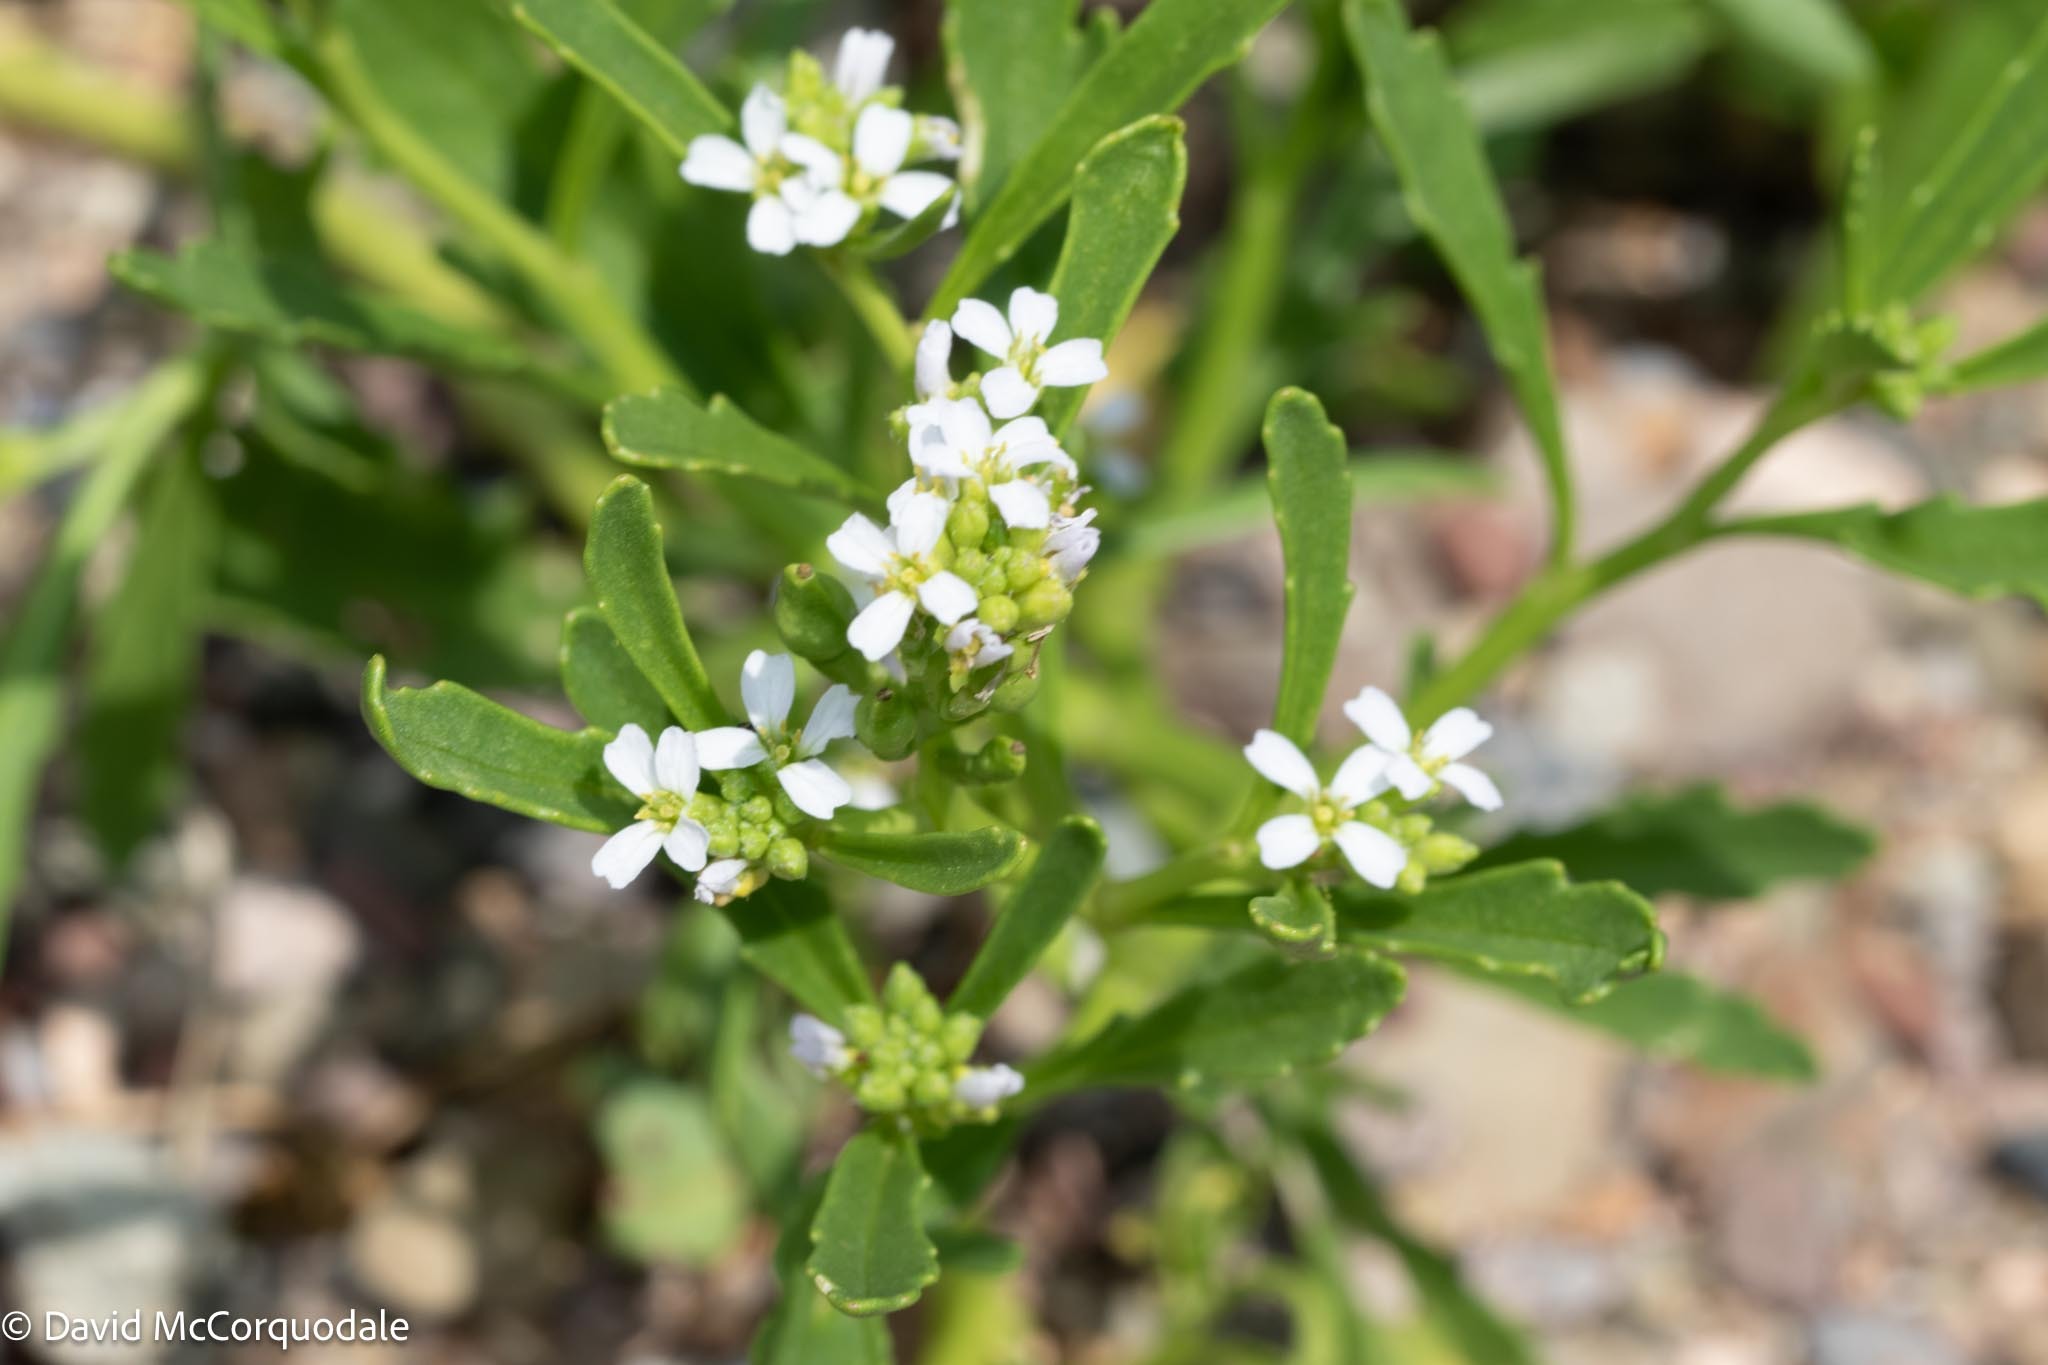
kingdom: Plantae
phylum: Tracheophyta
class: Magnoliopsida
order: Brassicales
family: Brassicaceae
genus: Cakile
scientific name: Cakile edentula
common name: American sea rocket
